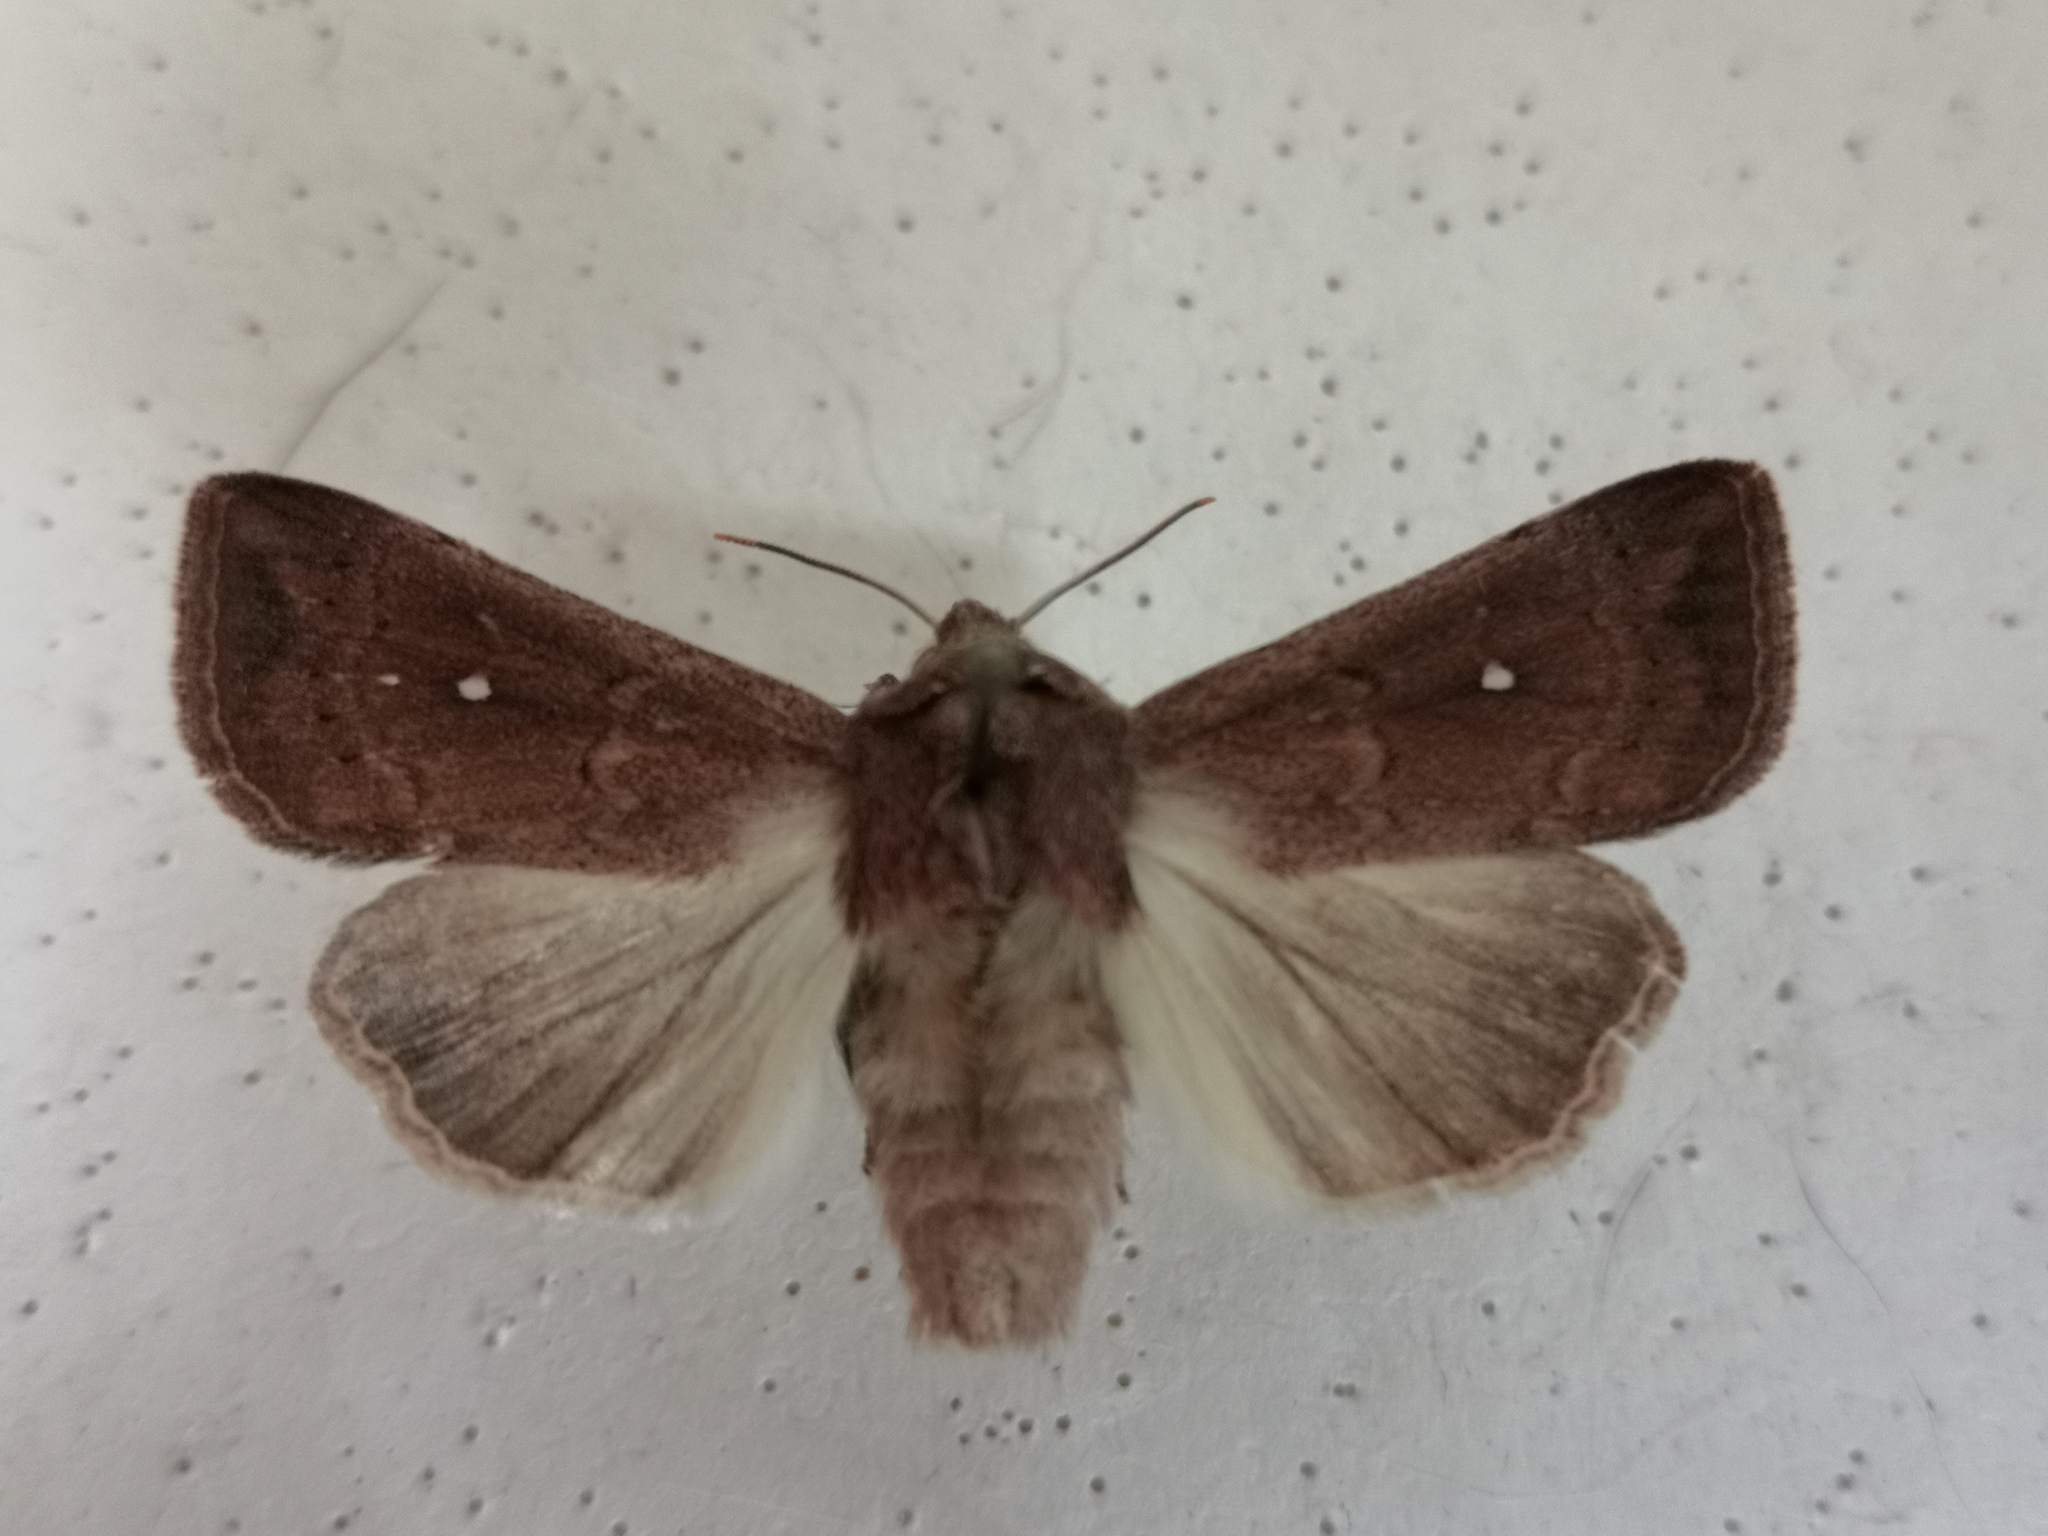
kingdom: Animalia
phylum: Arthropoda
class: Insecta
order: Lepidoptera
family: Noctuidae
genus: Mythimna
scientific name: Mythimna albipuncta
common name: White-point
